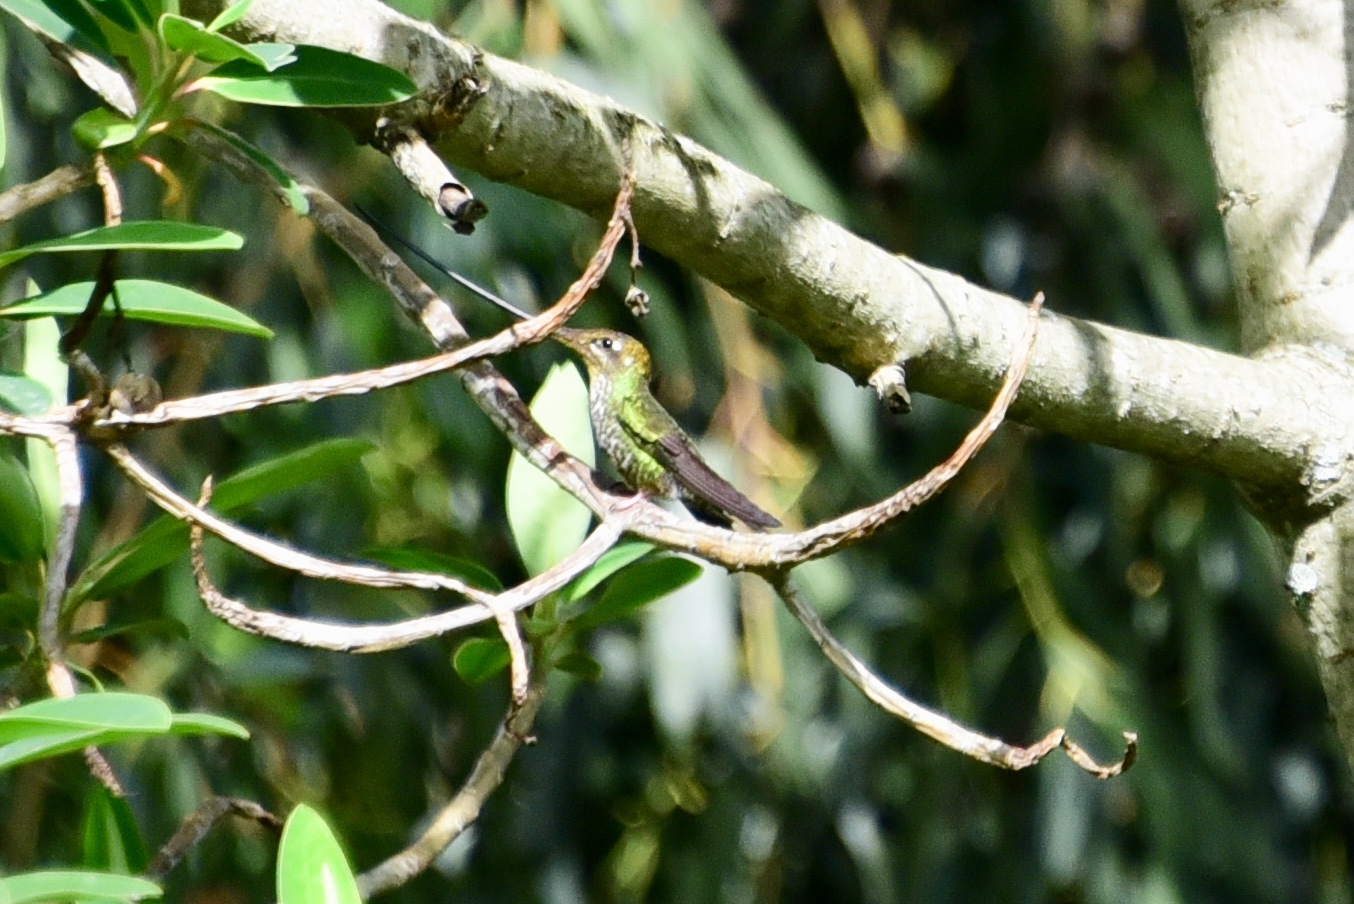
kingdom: Animalia
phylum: Chordata
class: Aves
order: Apodiformes
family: Trochilidae
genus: Ensifera
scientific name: Ensifera ensifera
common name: Sword-billed hummingbird
